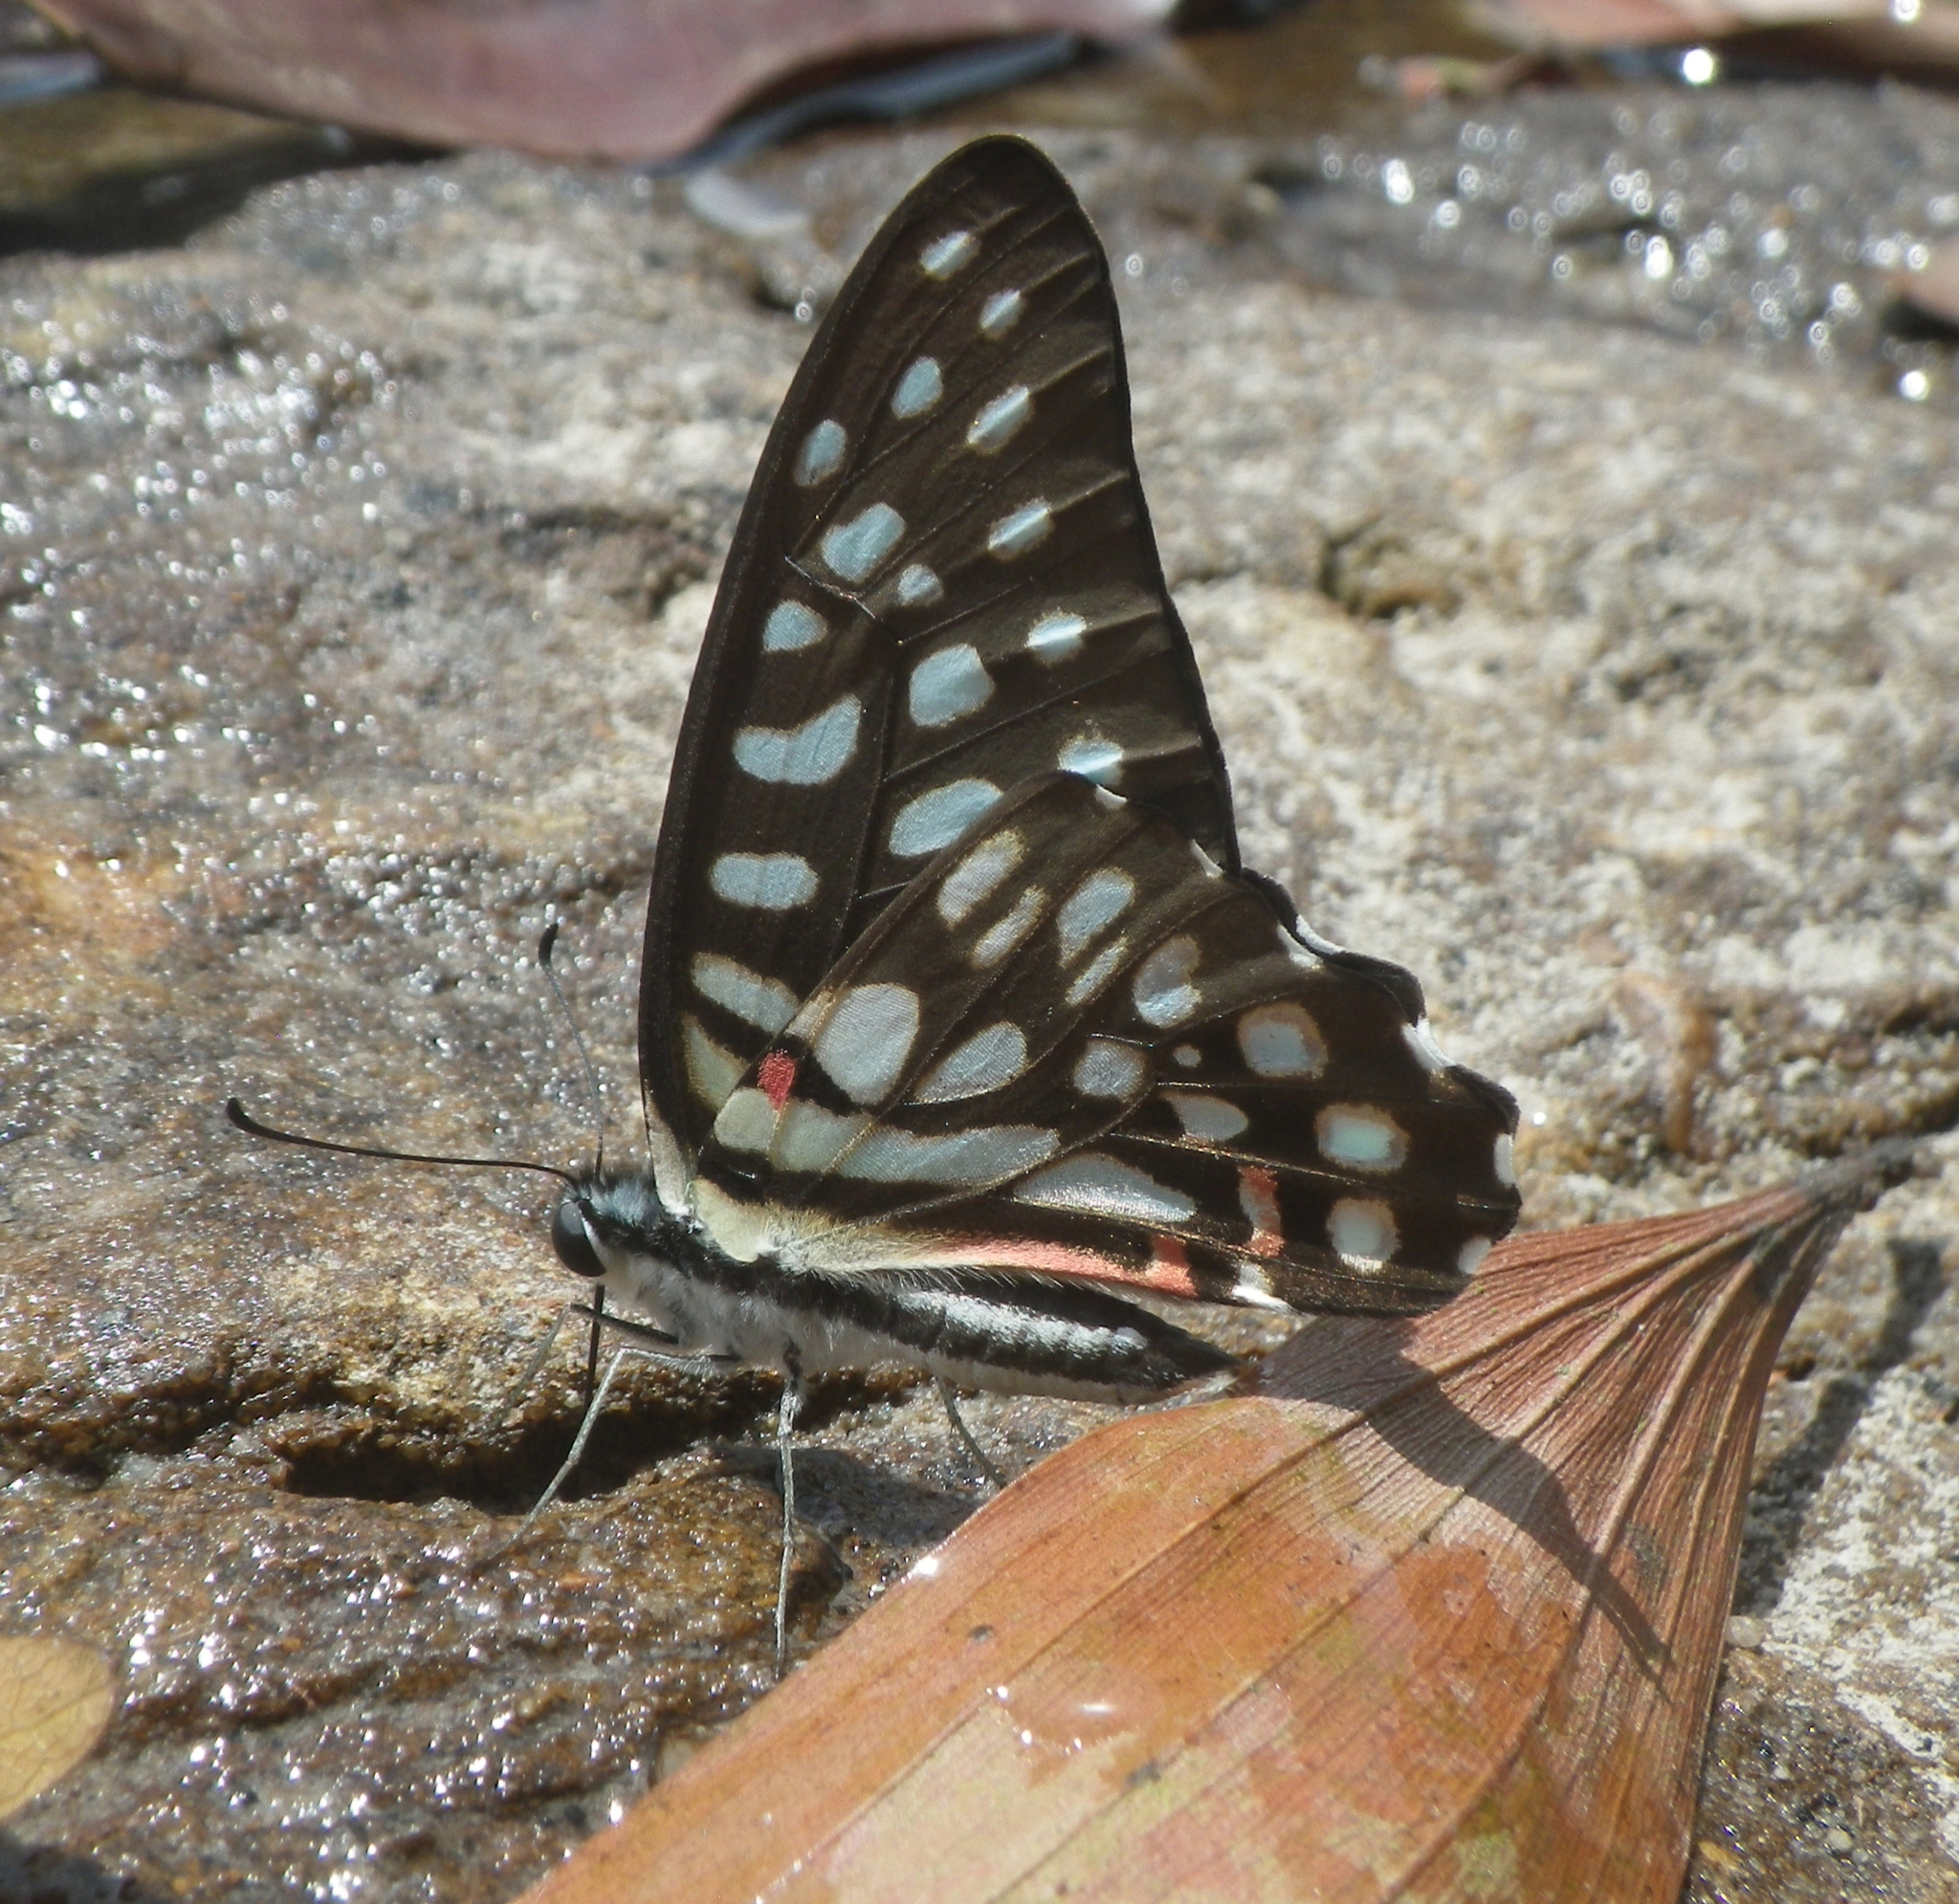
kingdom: Animalia
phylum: Arthropoda
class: Insecta
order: Lepidoptera
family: Papilionidae
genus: Graphium
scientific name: Graphium arycles
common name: Spotted jay
